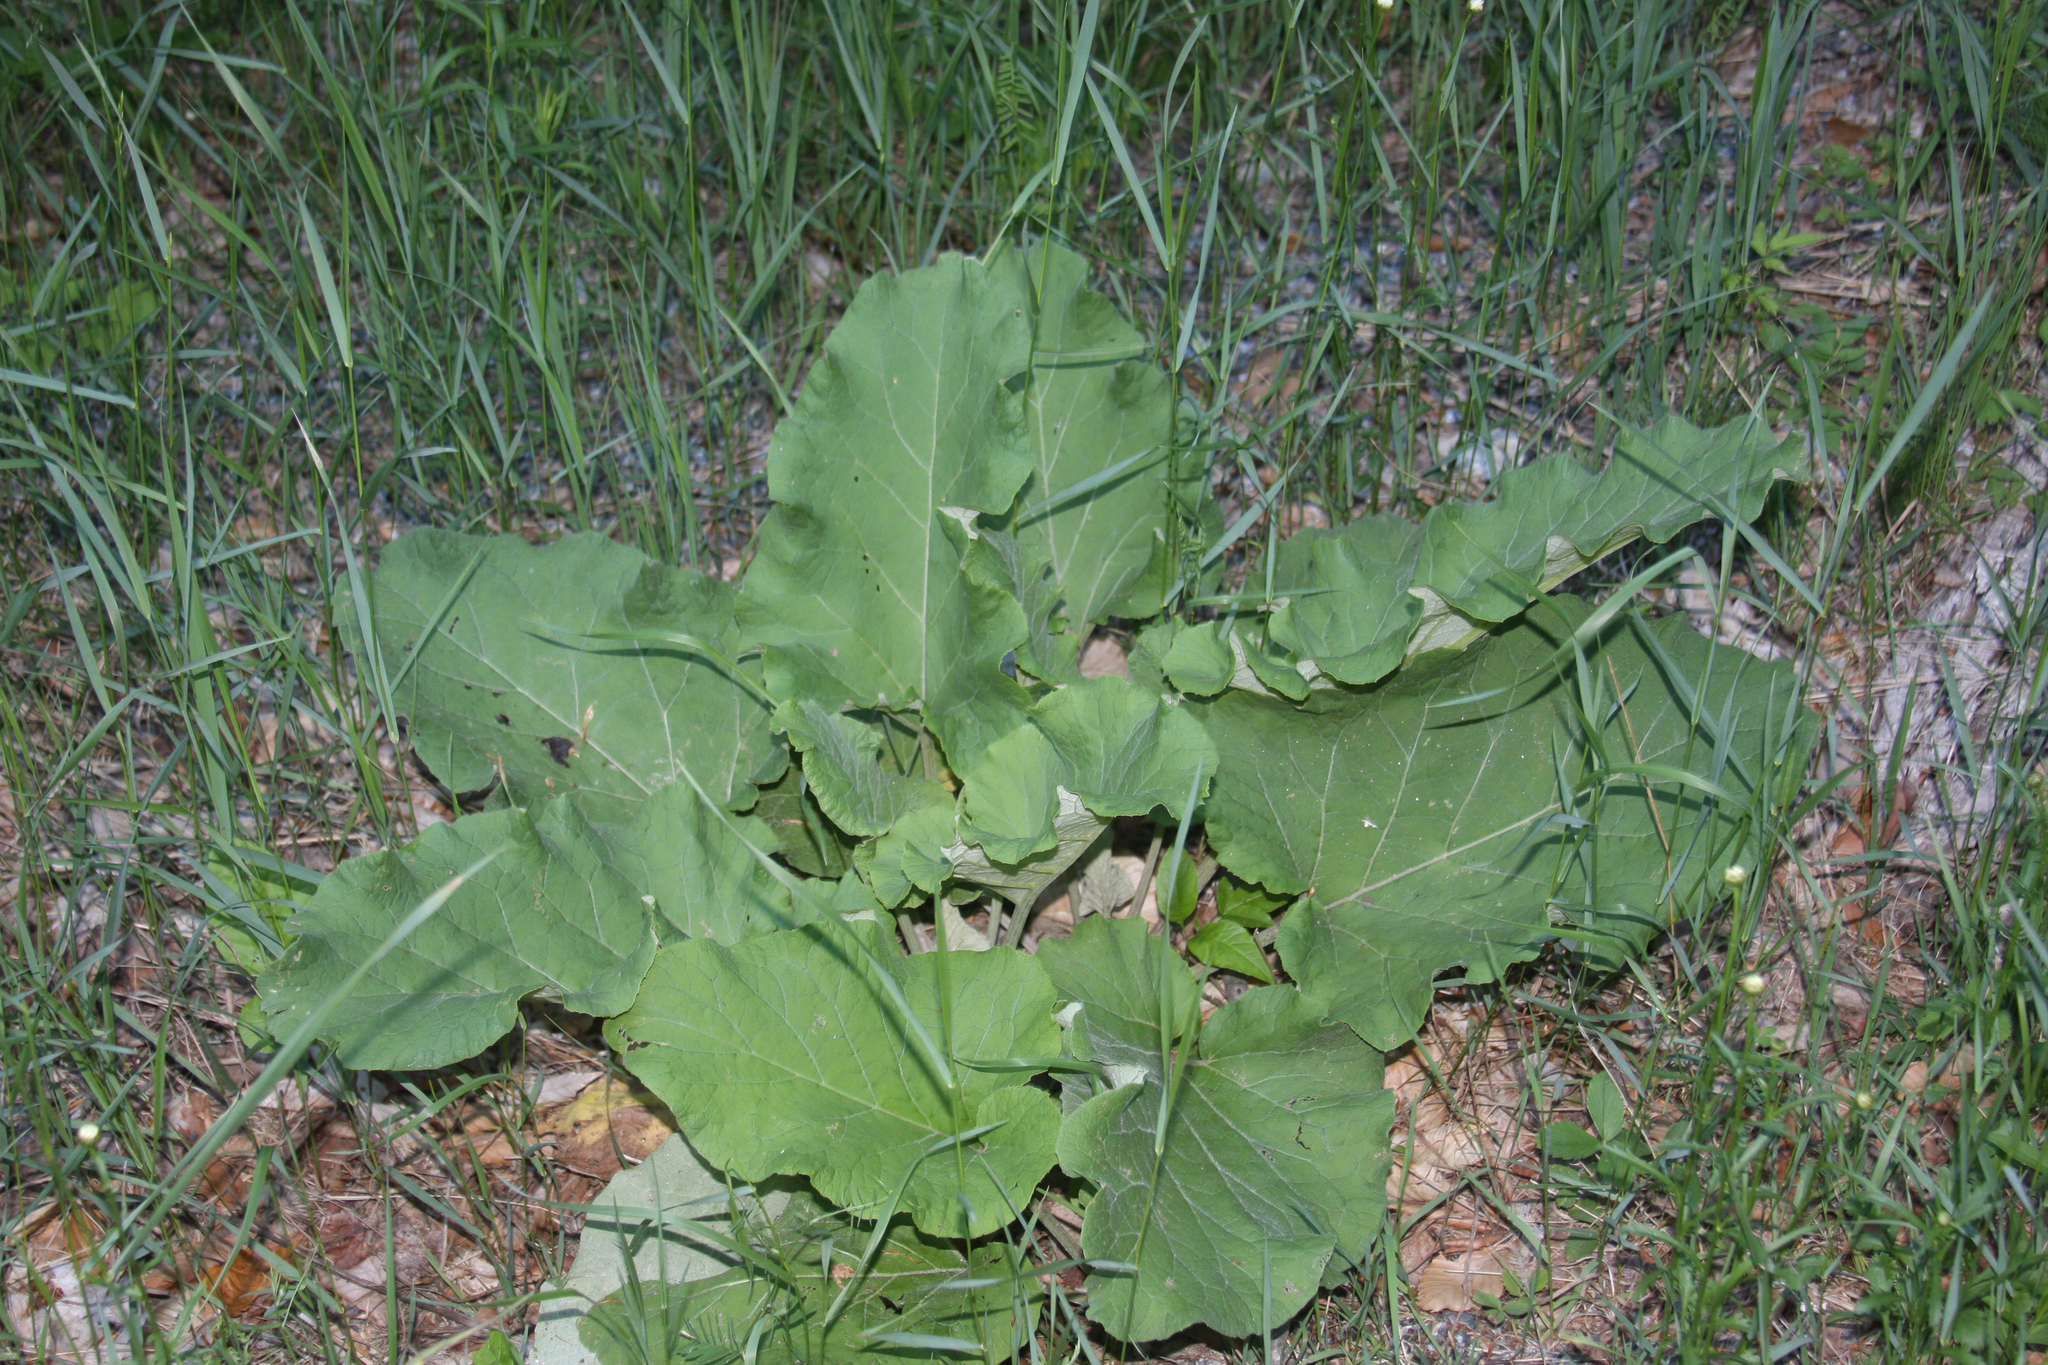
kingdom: Plantae
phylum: Tracheophyta
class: Magnoliopsida
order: Asterales
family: Asteraceae
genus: Arctium
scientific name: Arctium
